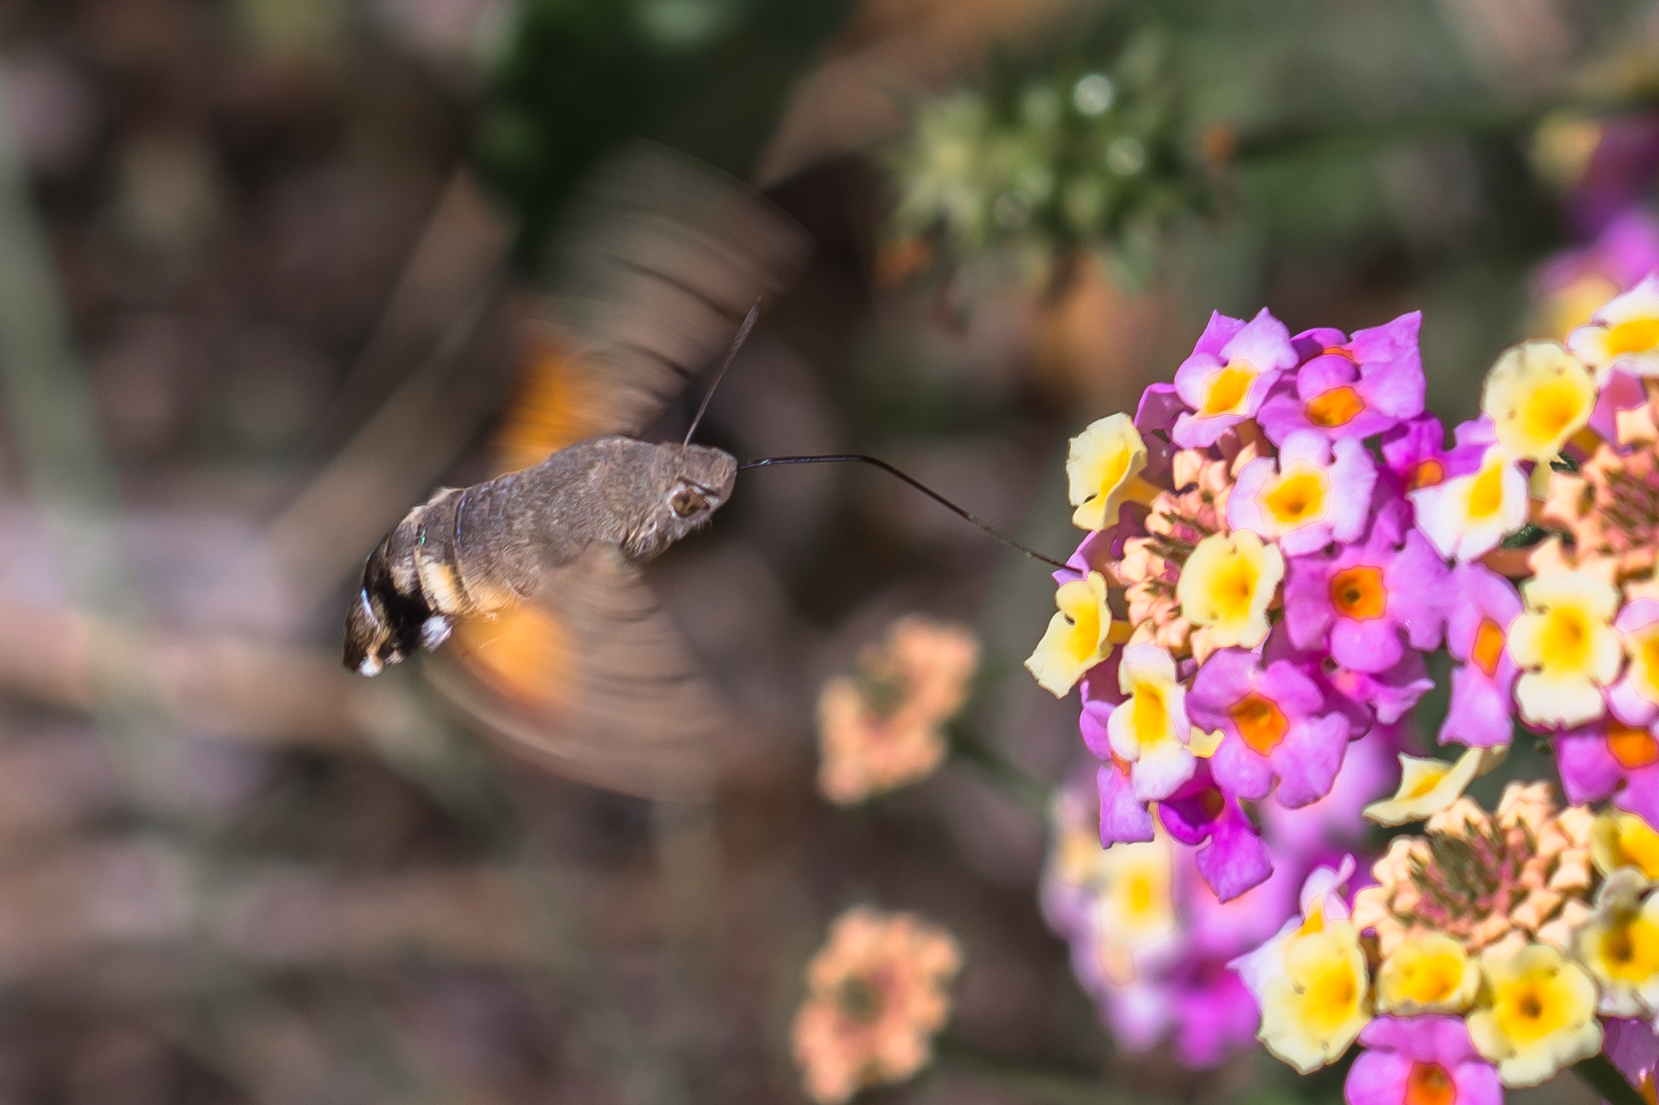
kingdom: Animalia
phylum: Arthropoda
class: Insecta
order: Lepidoptera
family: Sphingidae
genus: Macroglossum
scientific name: Macroglossum stellatarum
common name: Humming-bird hawk-moth
